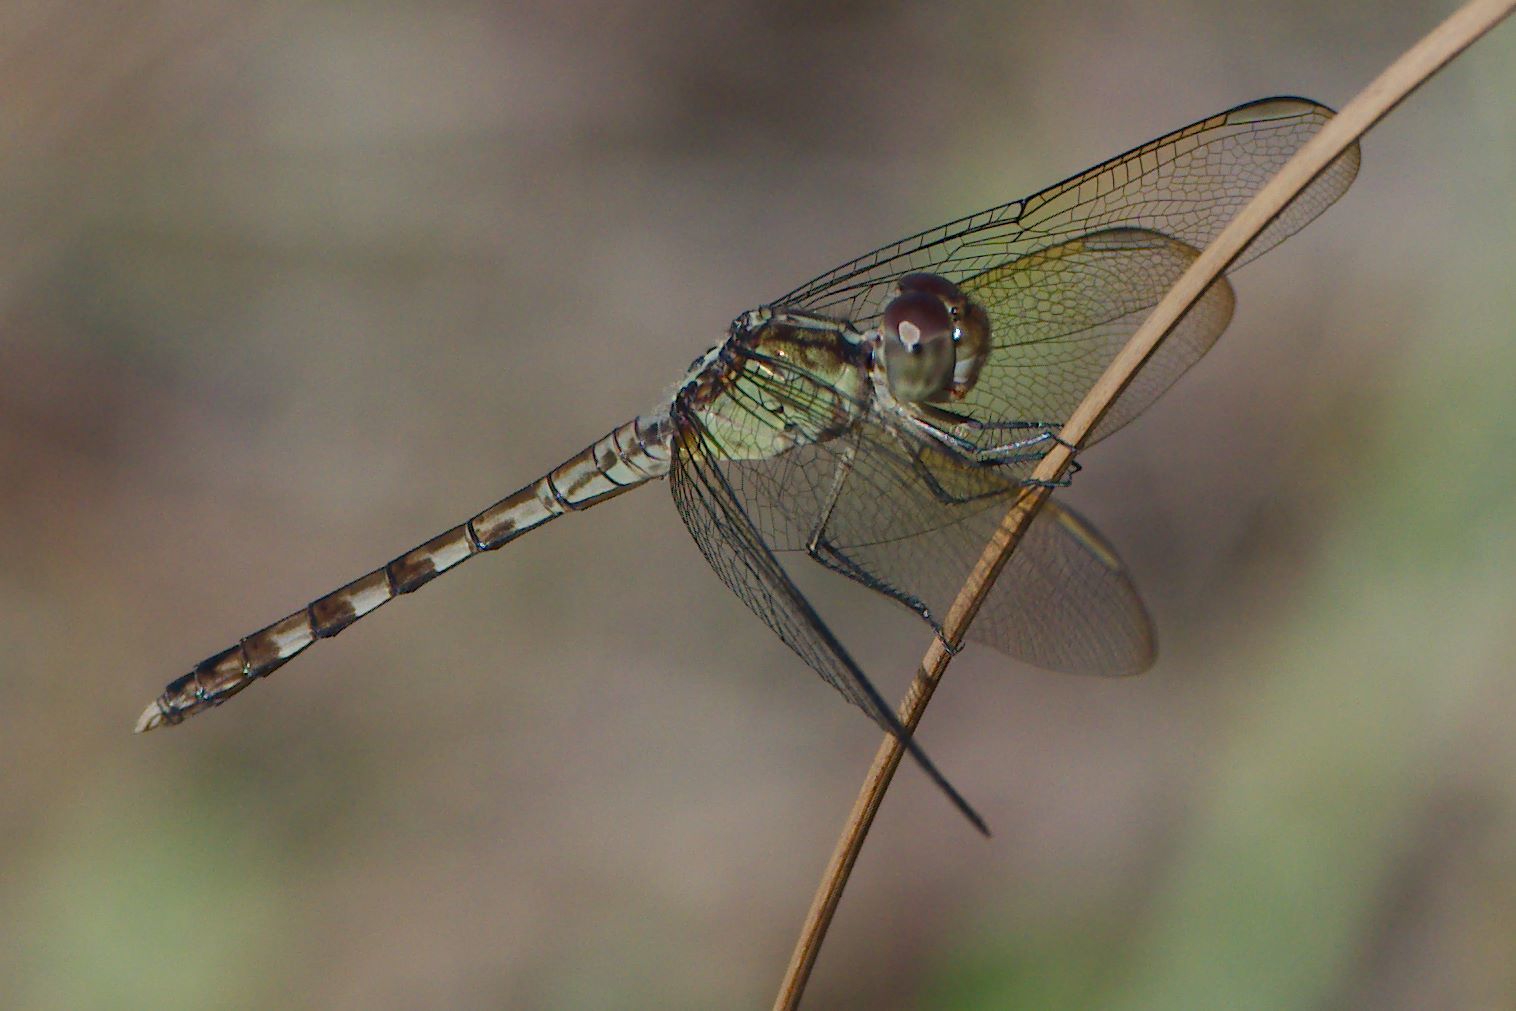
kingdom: Animalia
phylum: Arthropoda
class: Insecta
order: Odonata
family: Libellulidae
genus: Erythrodiplax
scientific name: Erythrodiplax umbrata
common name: Band-winged dragonlet
